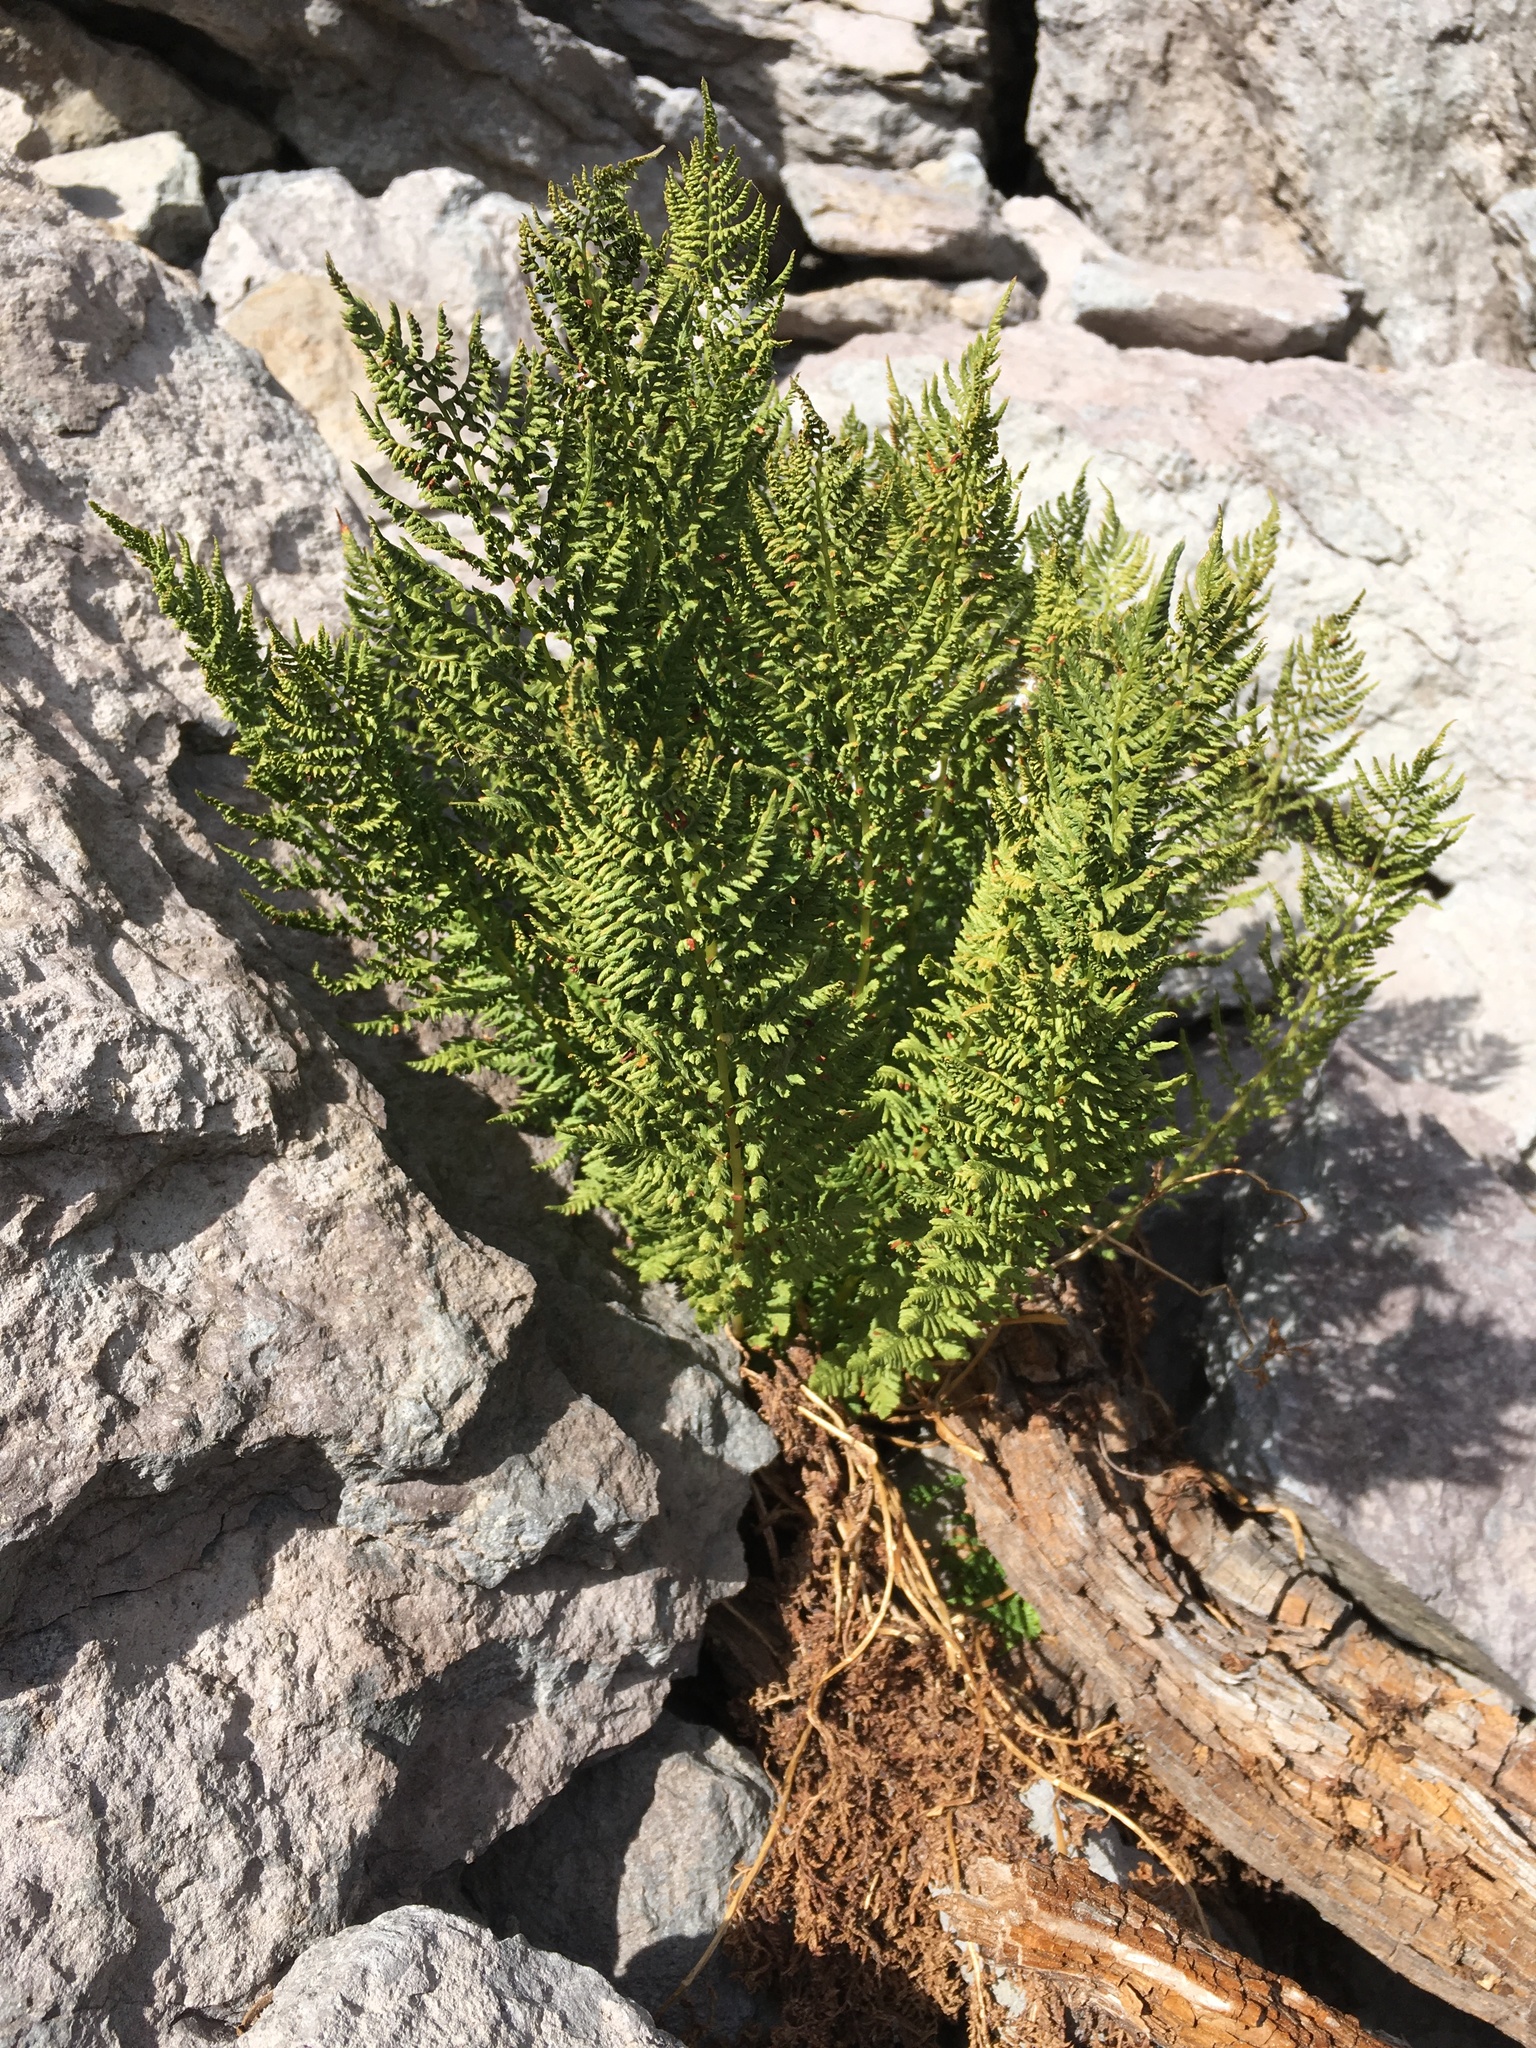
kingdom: Plantae
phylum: Tracheophyta
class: Polypodiopsida
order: Polypodiales
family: Athyriaceae
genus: Athyrium
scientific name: Athyrium americanum
